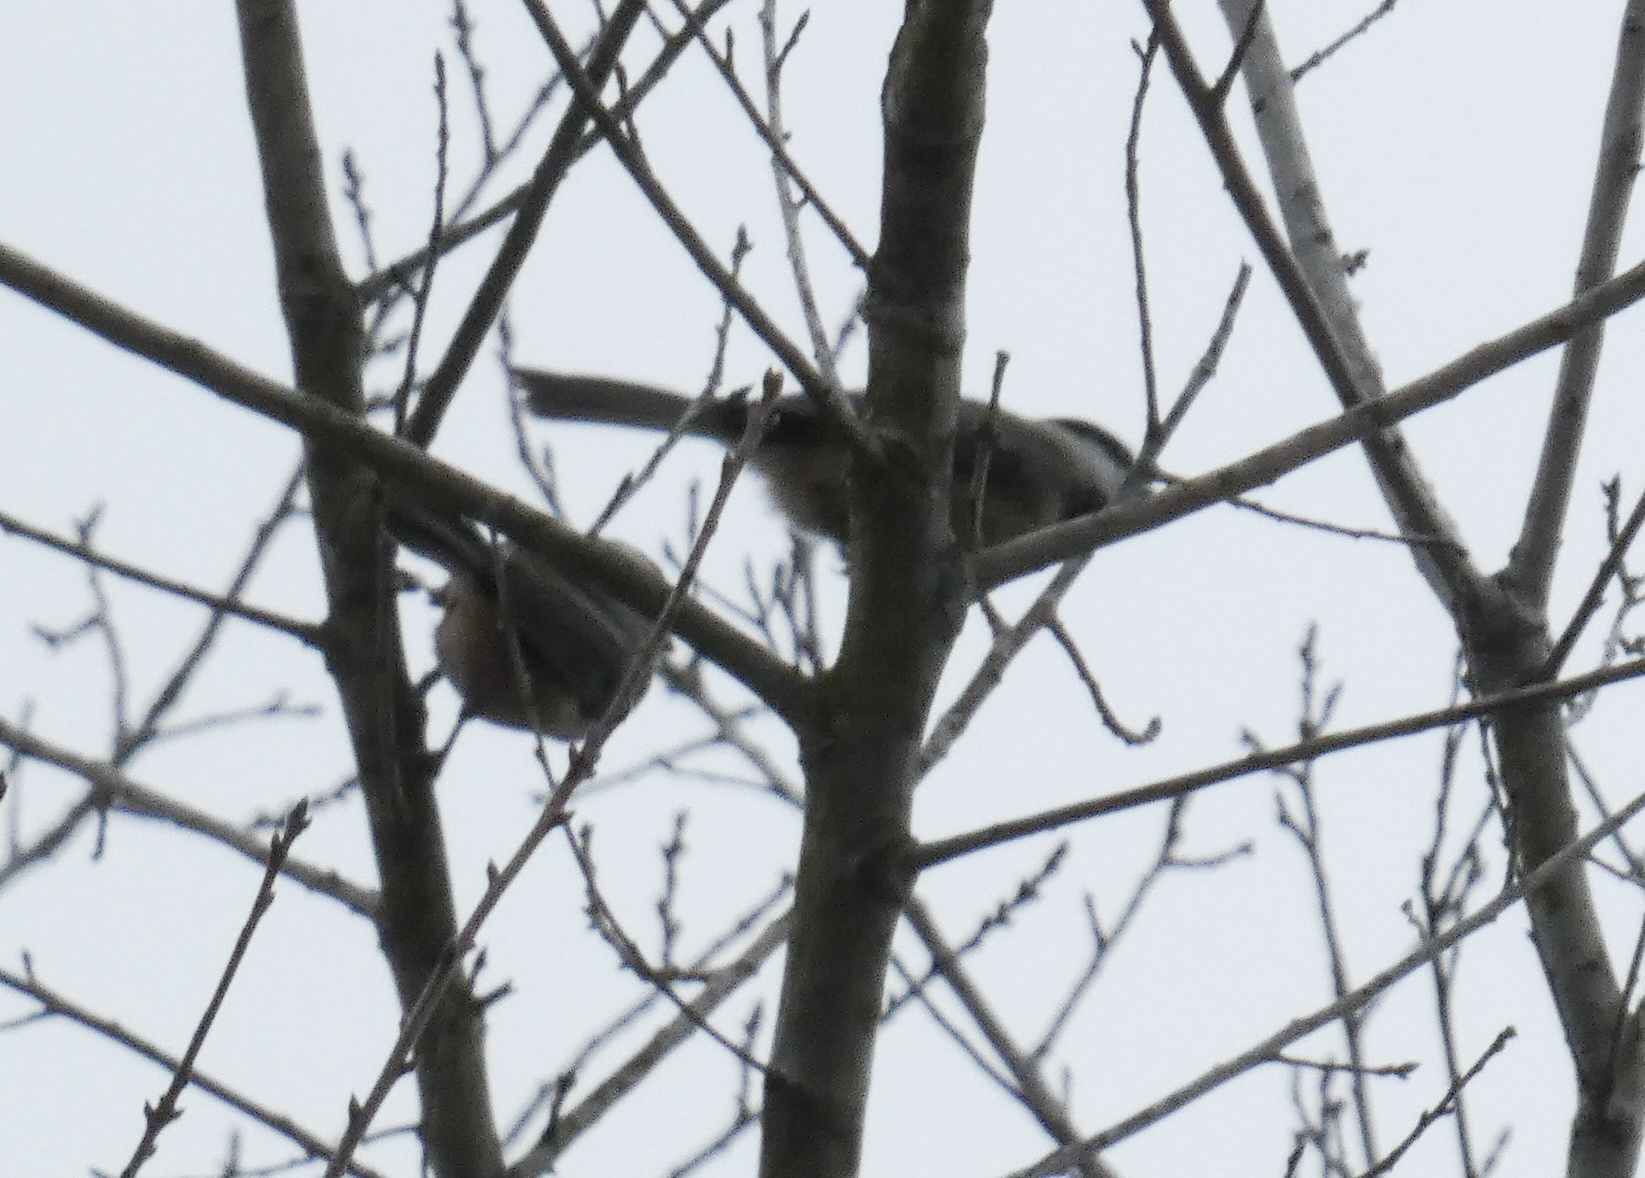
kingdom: Animalia
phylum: Chordata
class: Aves
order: Passeriformes
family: Paridae
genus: Poecile
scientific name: Poecile carolinensis
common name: Carolina chickadee
